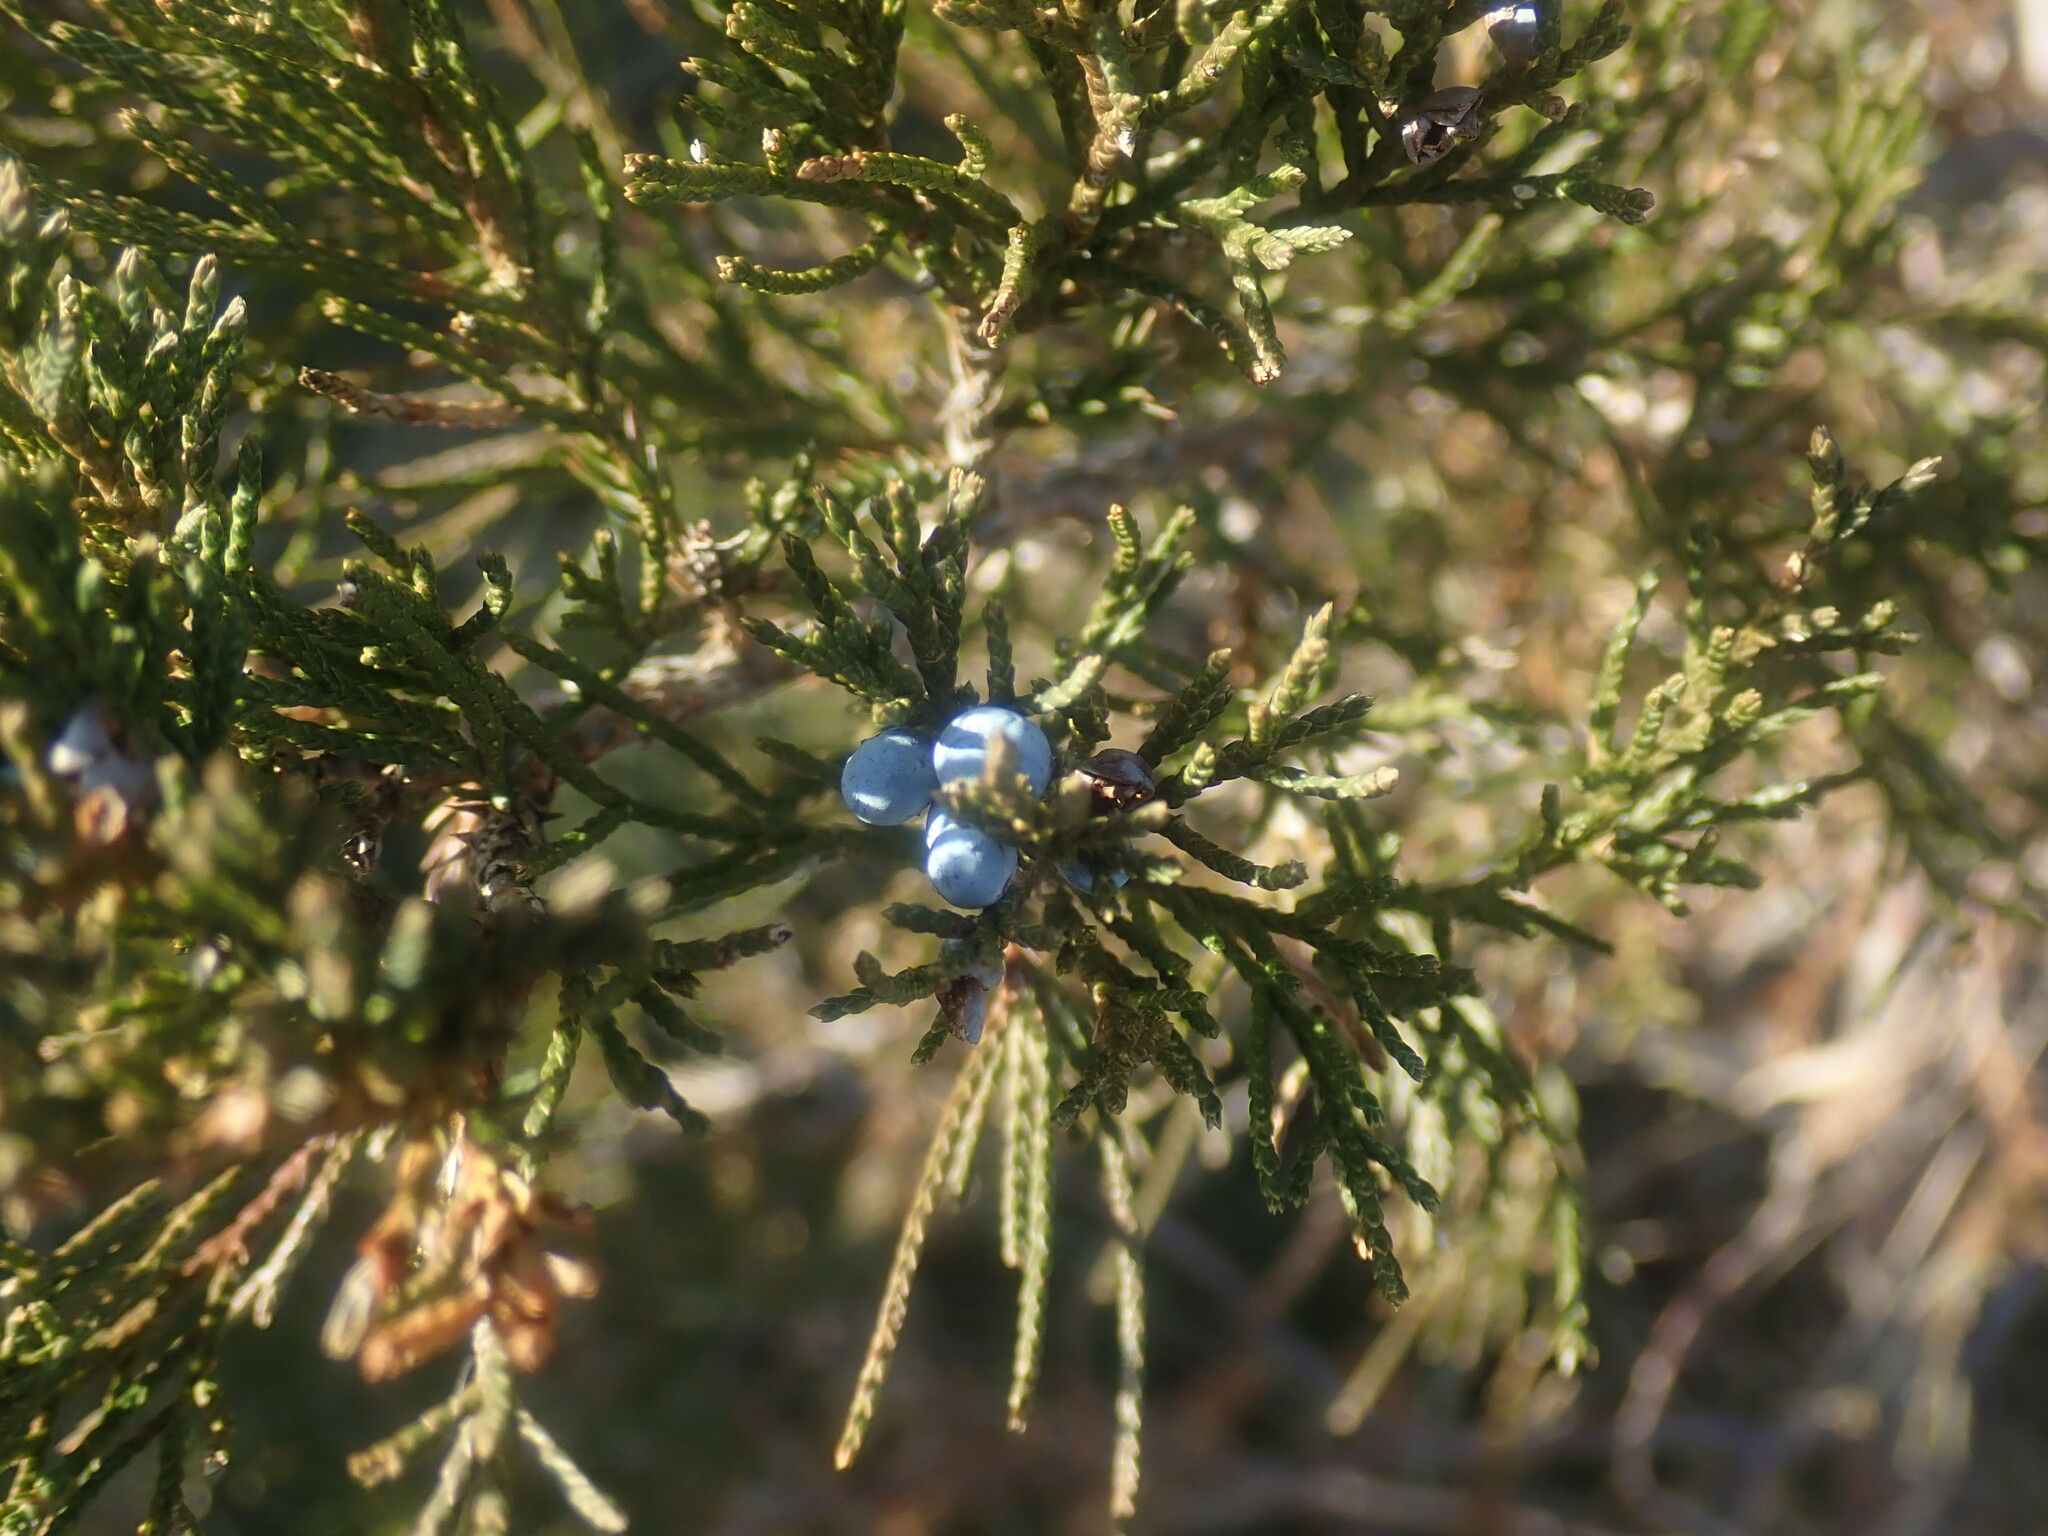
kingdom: Plantae
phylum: Tracheophyta
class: Pinopsida
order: Pinales
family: Cupressaceae
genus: Juniperus
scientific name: Juniperus virginiana
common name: Red juniper
